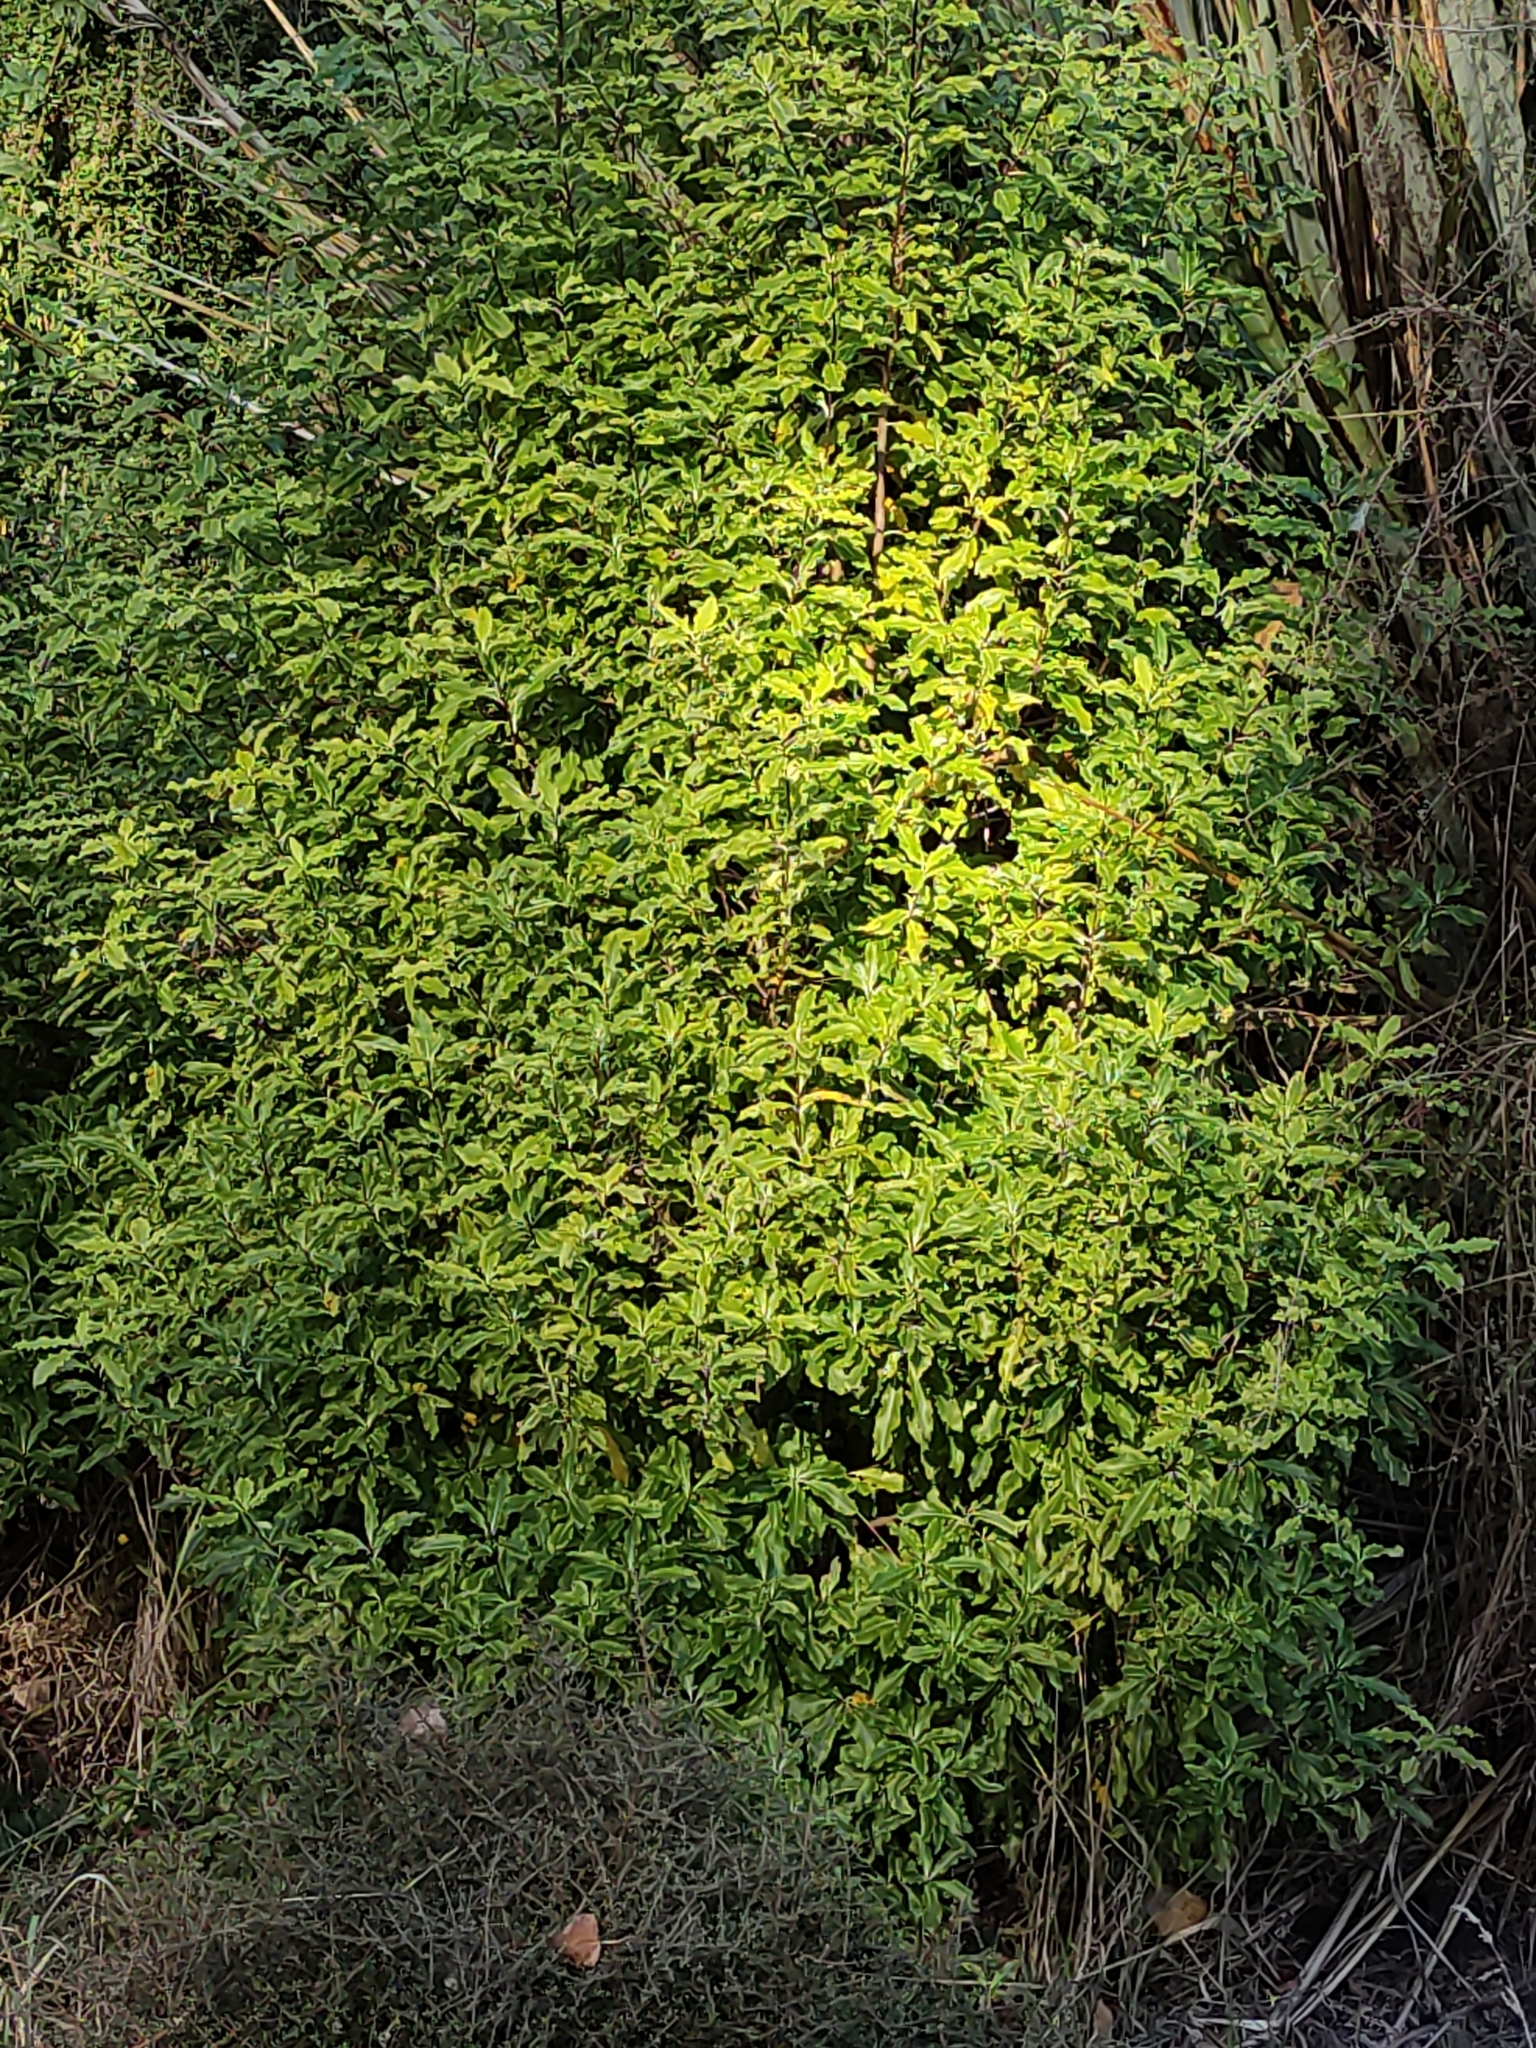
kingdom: Plantae
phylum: Tracheophyta
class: Magnoliopsida
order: Apiales
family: Pittosporaceae
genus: Pittosporum
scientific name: Pittosporum eugenioides
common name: Lemonwood
